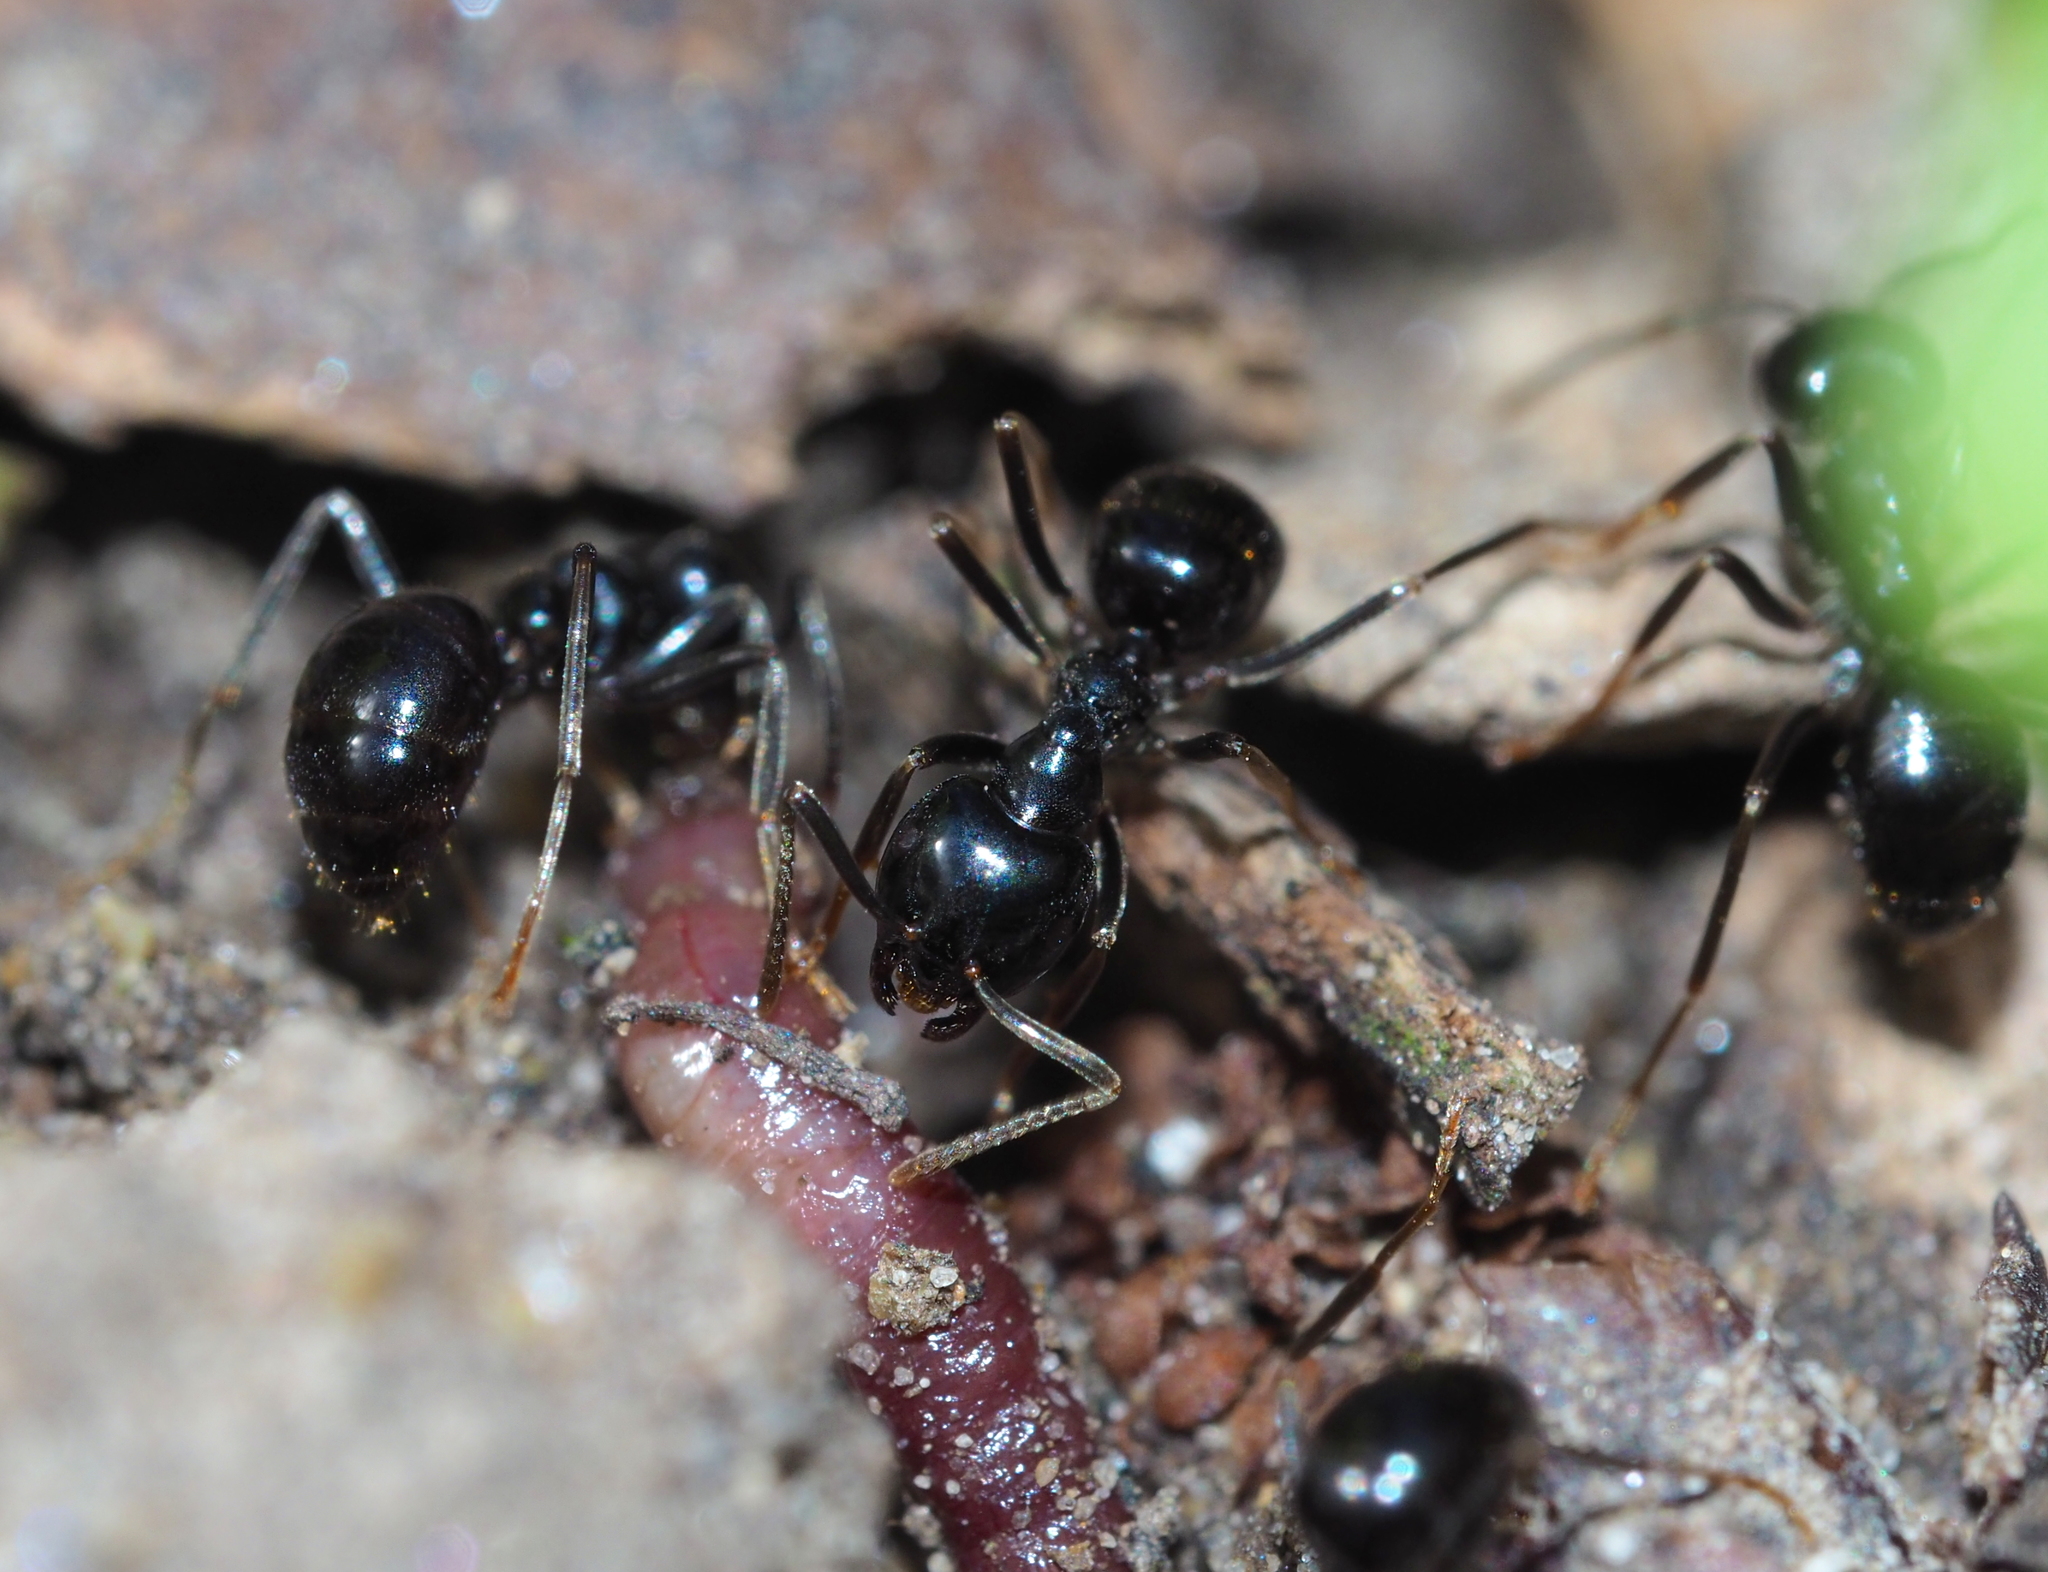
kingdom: Animalia
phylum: Arthropoda
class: Insecta
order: Hymenoptera
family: Formicidae
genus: Lasius
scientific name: Lasius fuliginosus
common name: Jet ant
